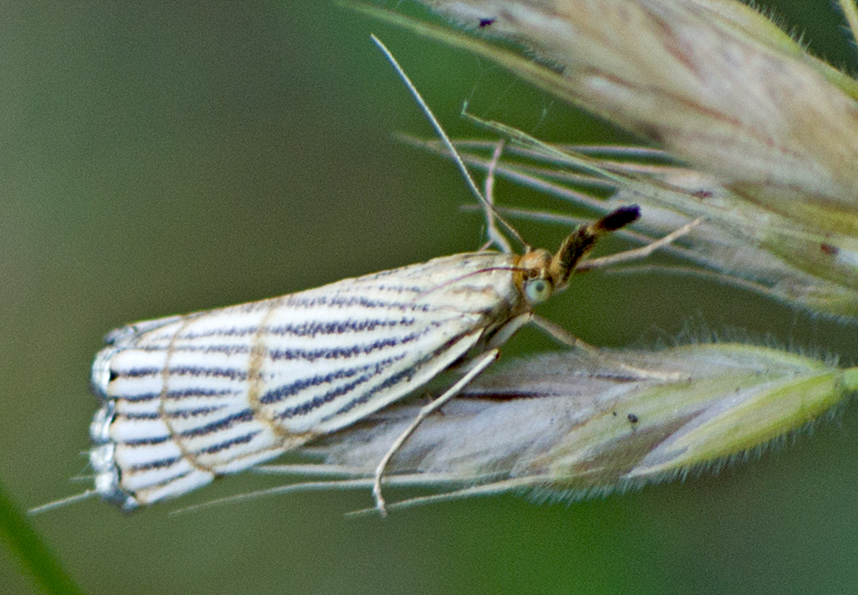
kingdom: Animalia
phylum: Arthropoda
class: Insecta
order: Lepidoptera
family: Crambidae
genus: Chrysocrambus
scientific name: Chrysocrambus linetella
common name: Orange-bar grass-veneer
